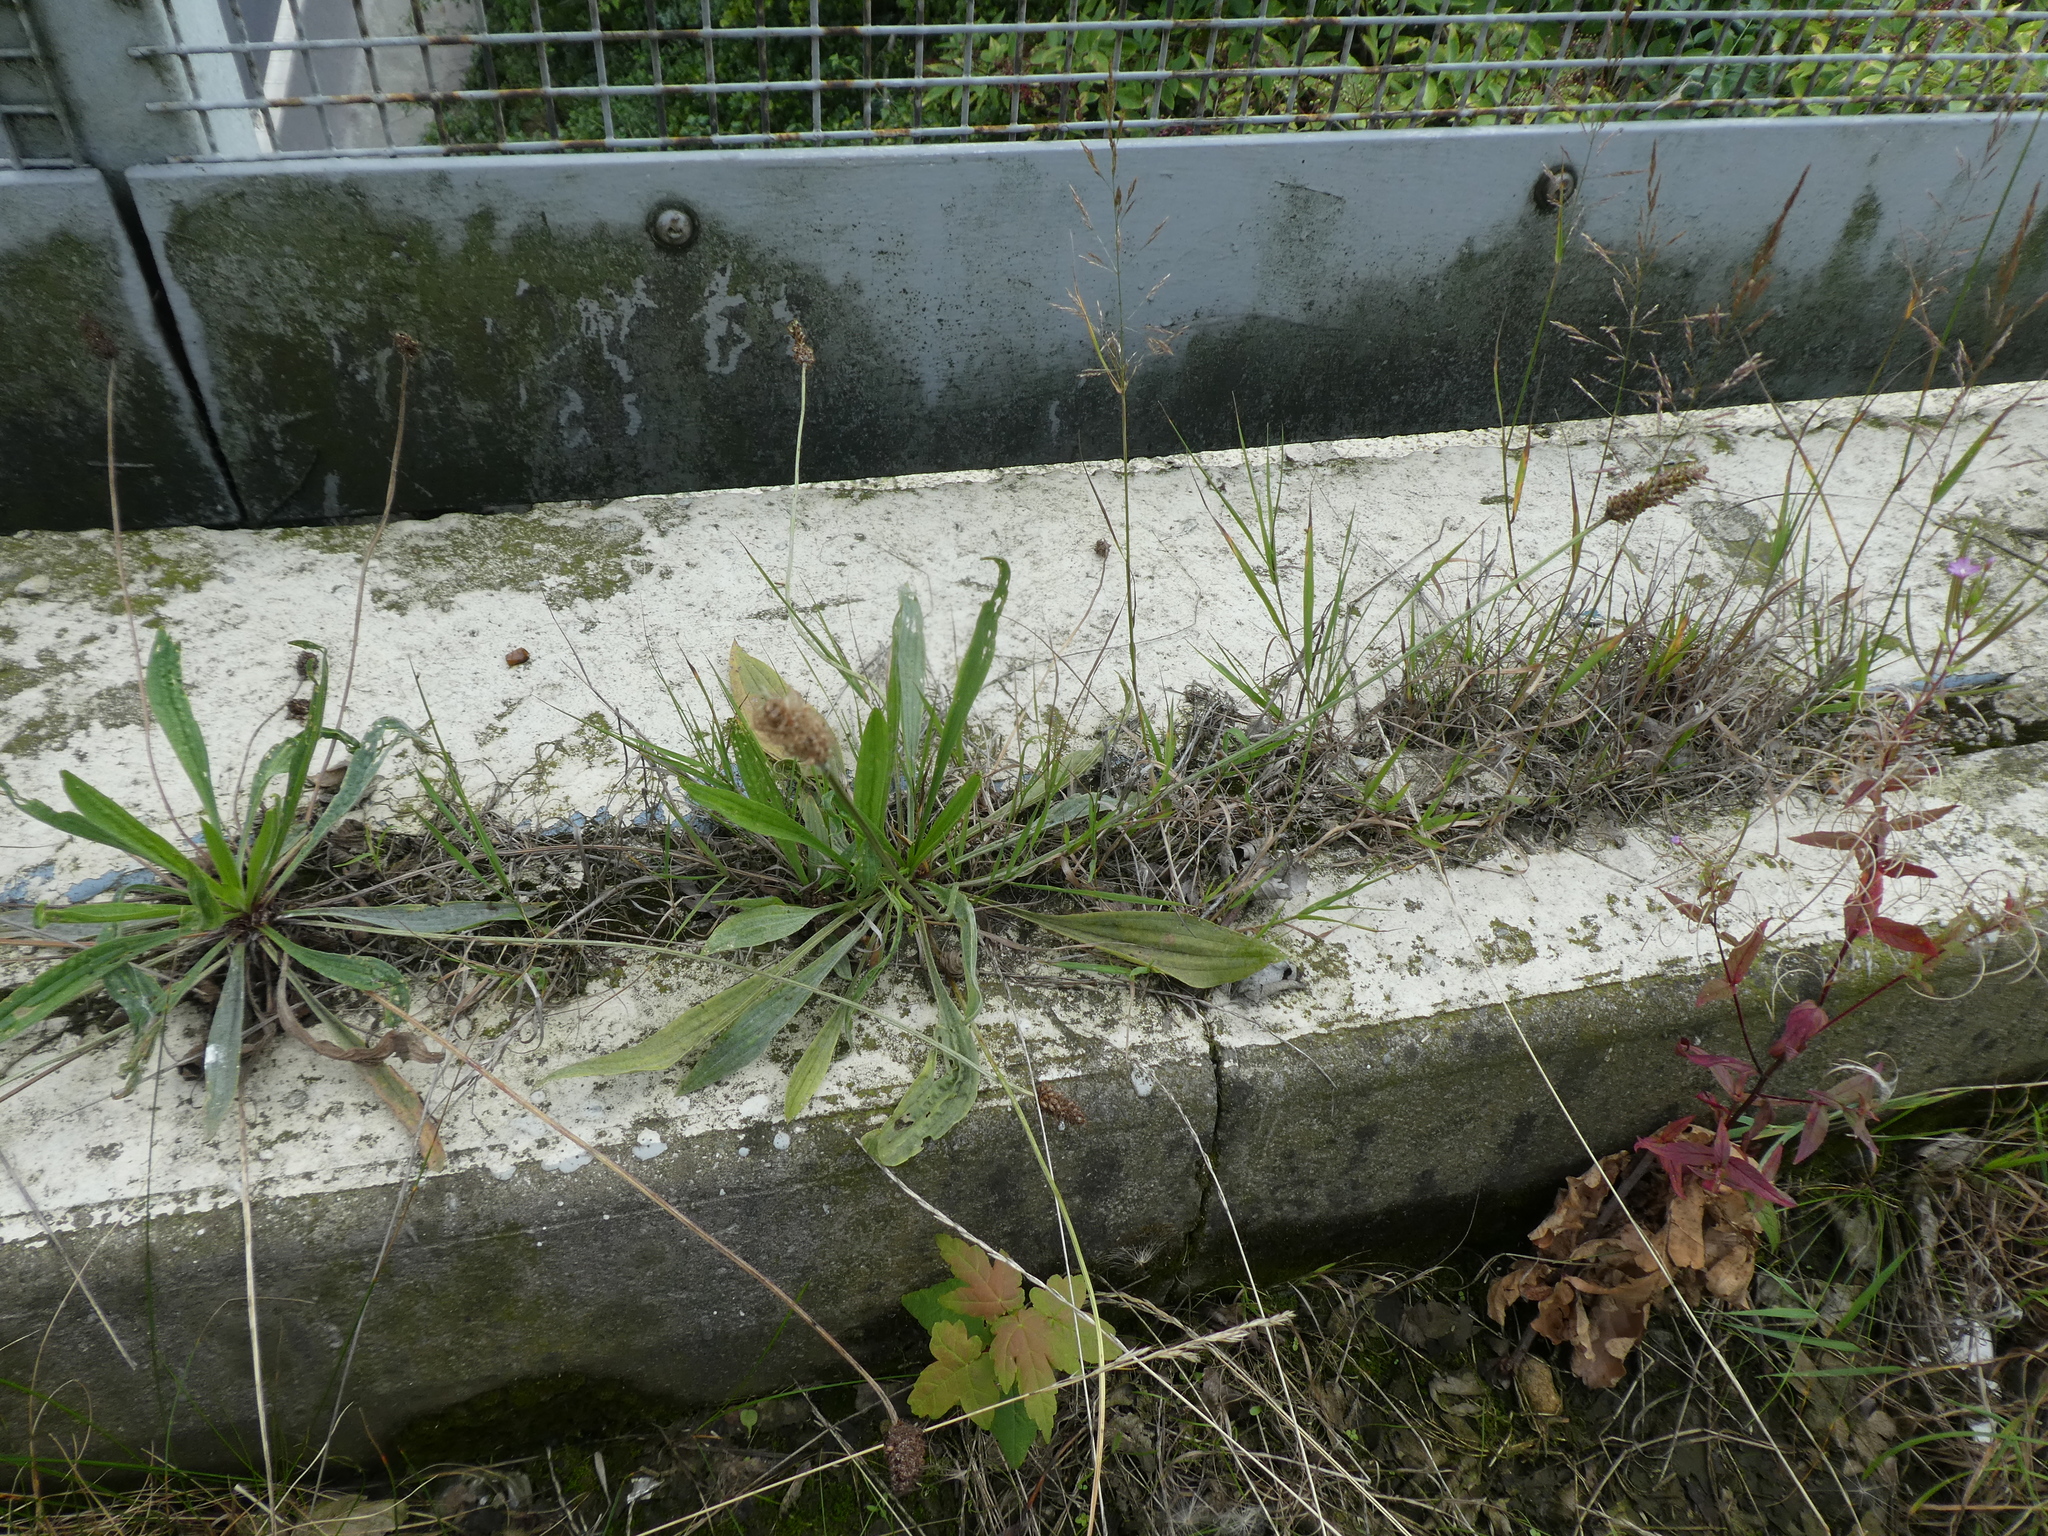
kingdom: Plantae
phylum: Tracheophyta
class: Magnoliopsida
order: Lamiales
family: Plantaginaceae
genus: Plantago
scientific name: Plantago lanceolata
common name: Ribwort plantain
